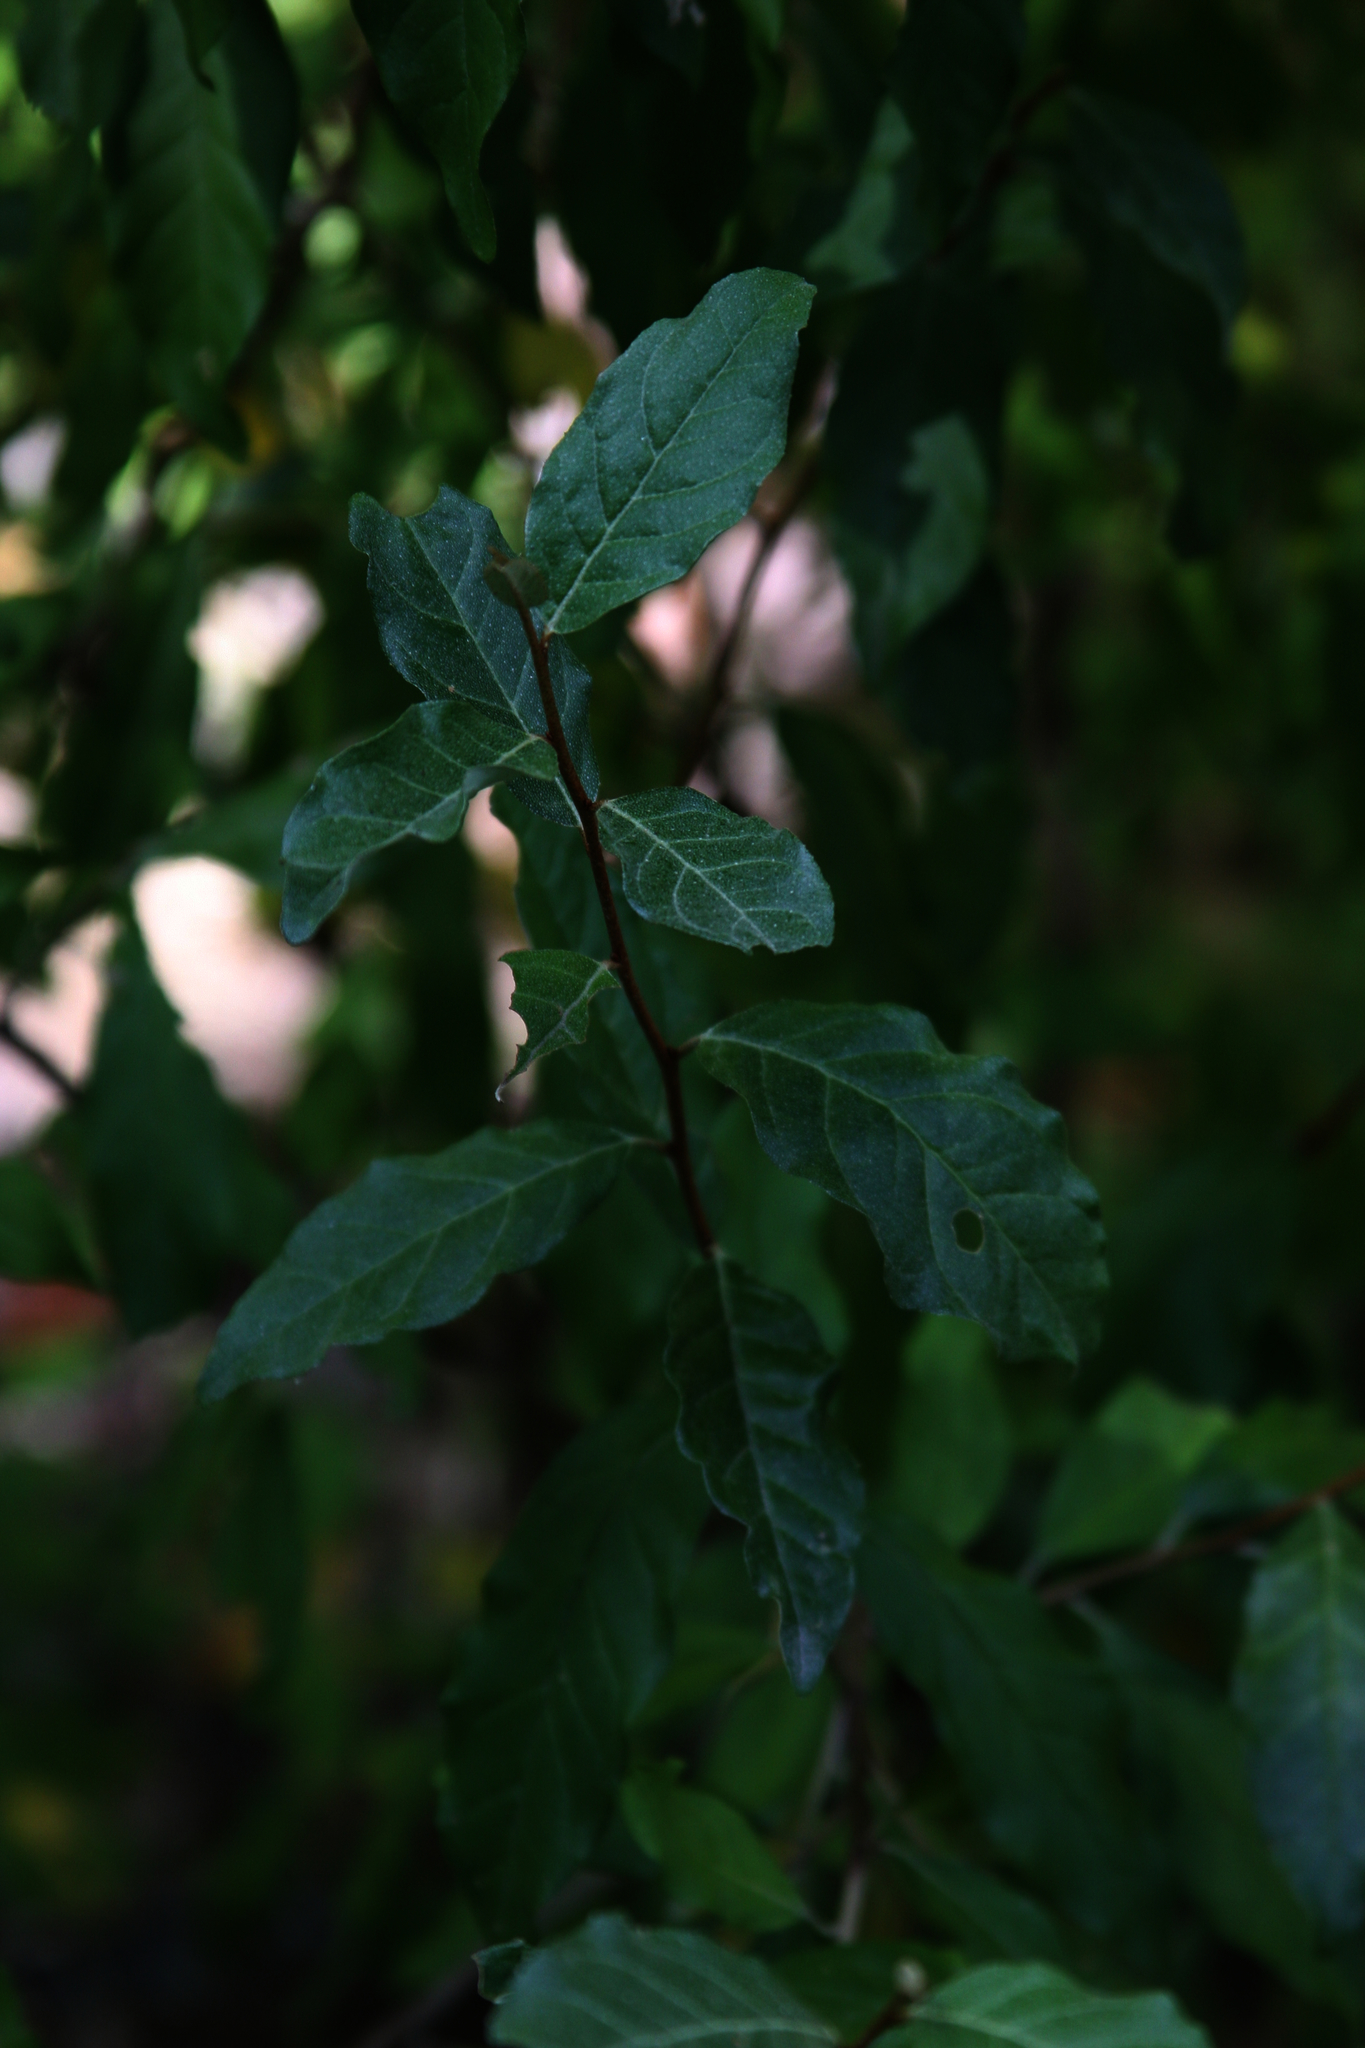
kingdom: Plantae
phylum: Tracheophyta
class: Magnoliopsida
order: Rosales
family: Elaeagnaceae
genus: Elaeagnus
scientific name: Elaeagnus umbellata
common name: Autumn olive
